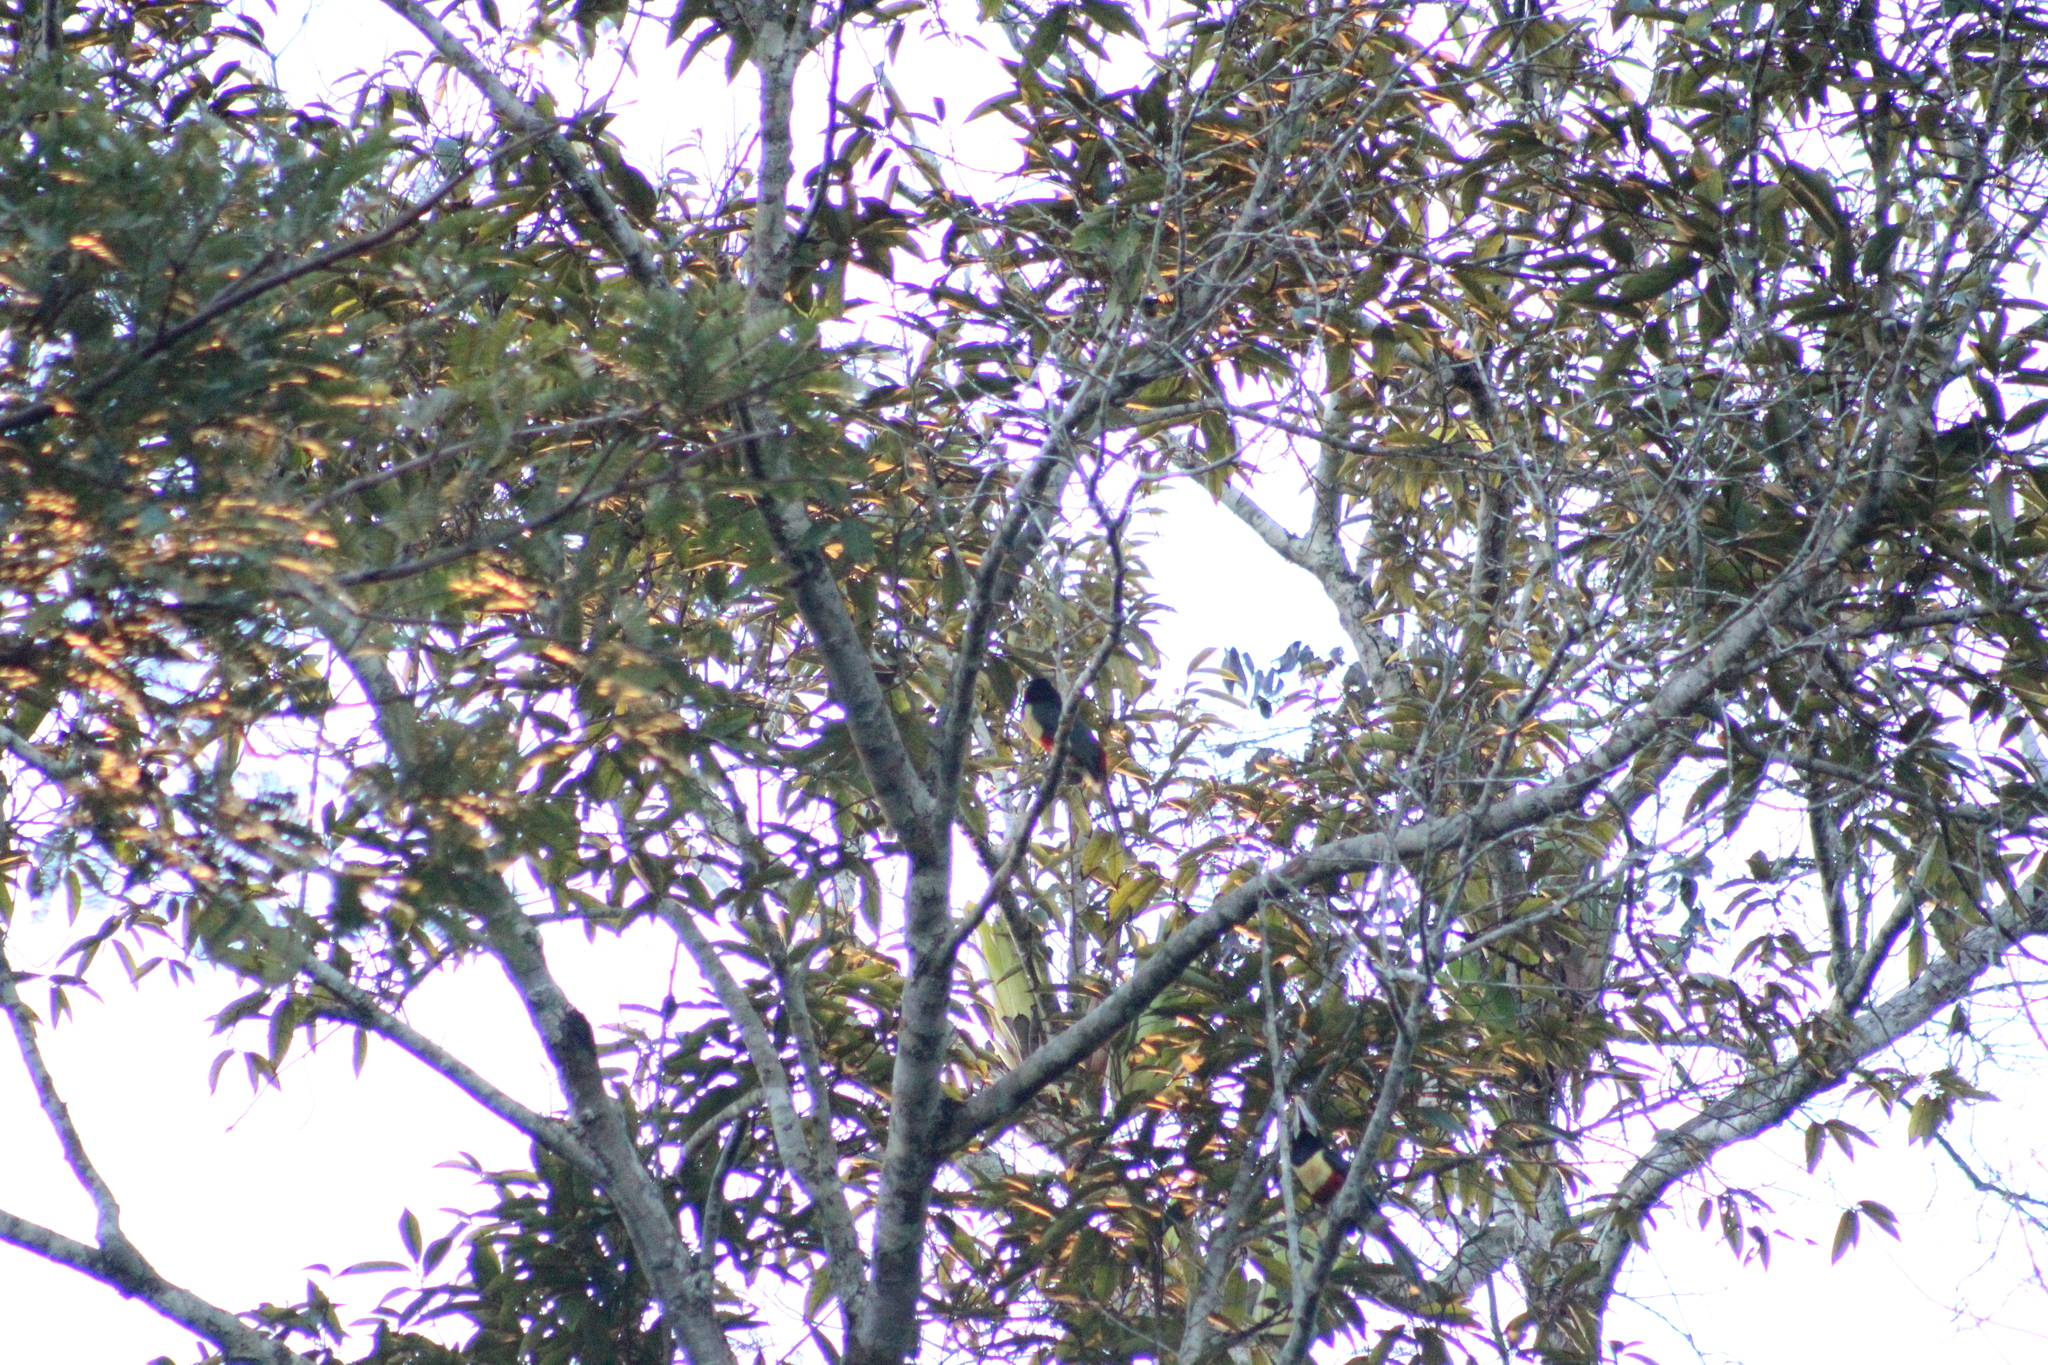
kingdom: Animalia
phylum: Chordata
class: Aves
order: Piciformes
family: Ramphastidae
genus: Pteroglossus
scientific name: Pteroglossus castanotis
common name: Chestnut-eared aracari
